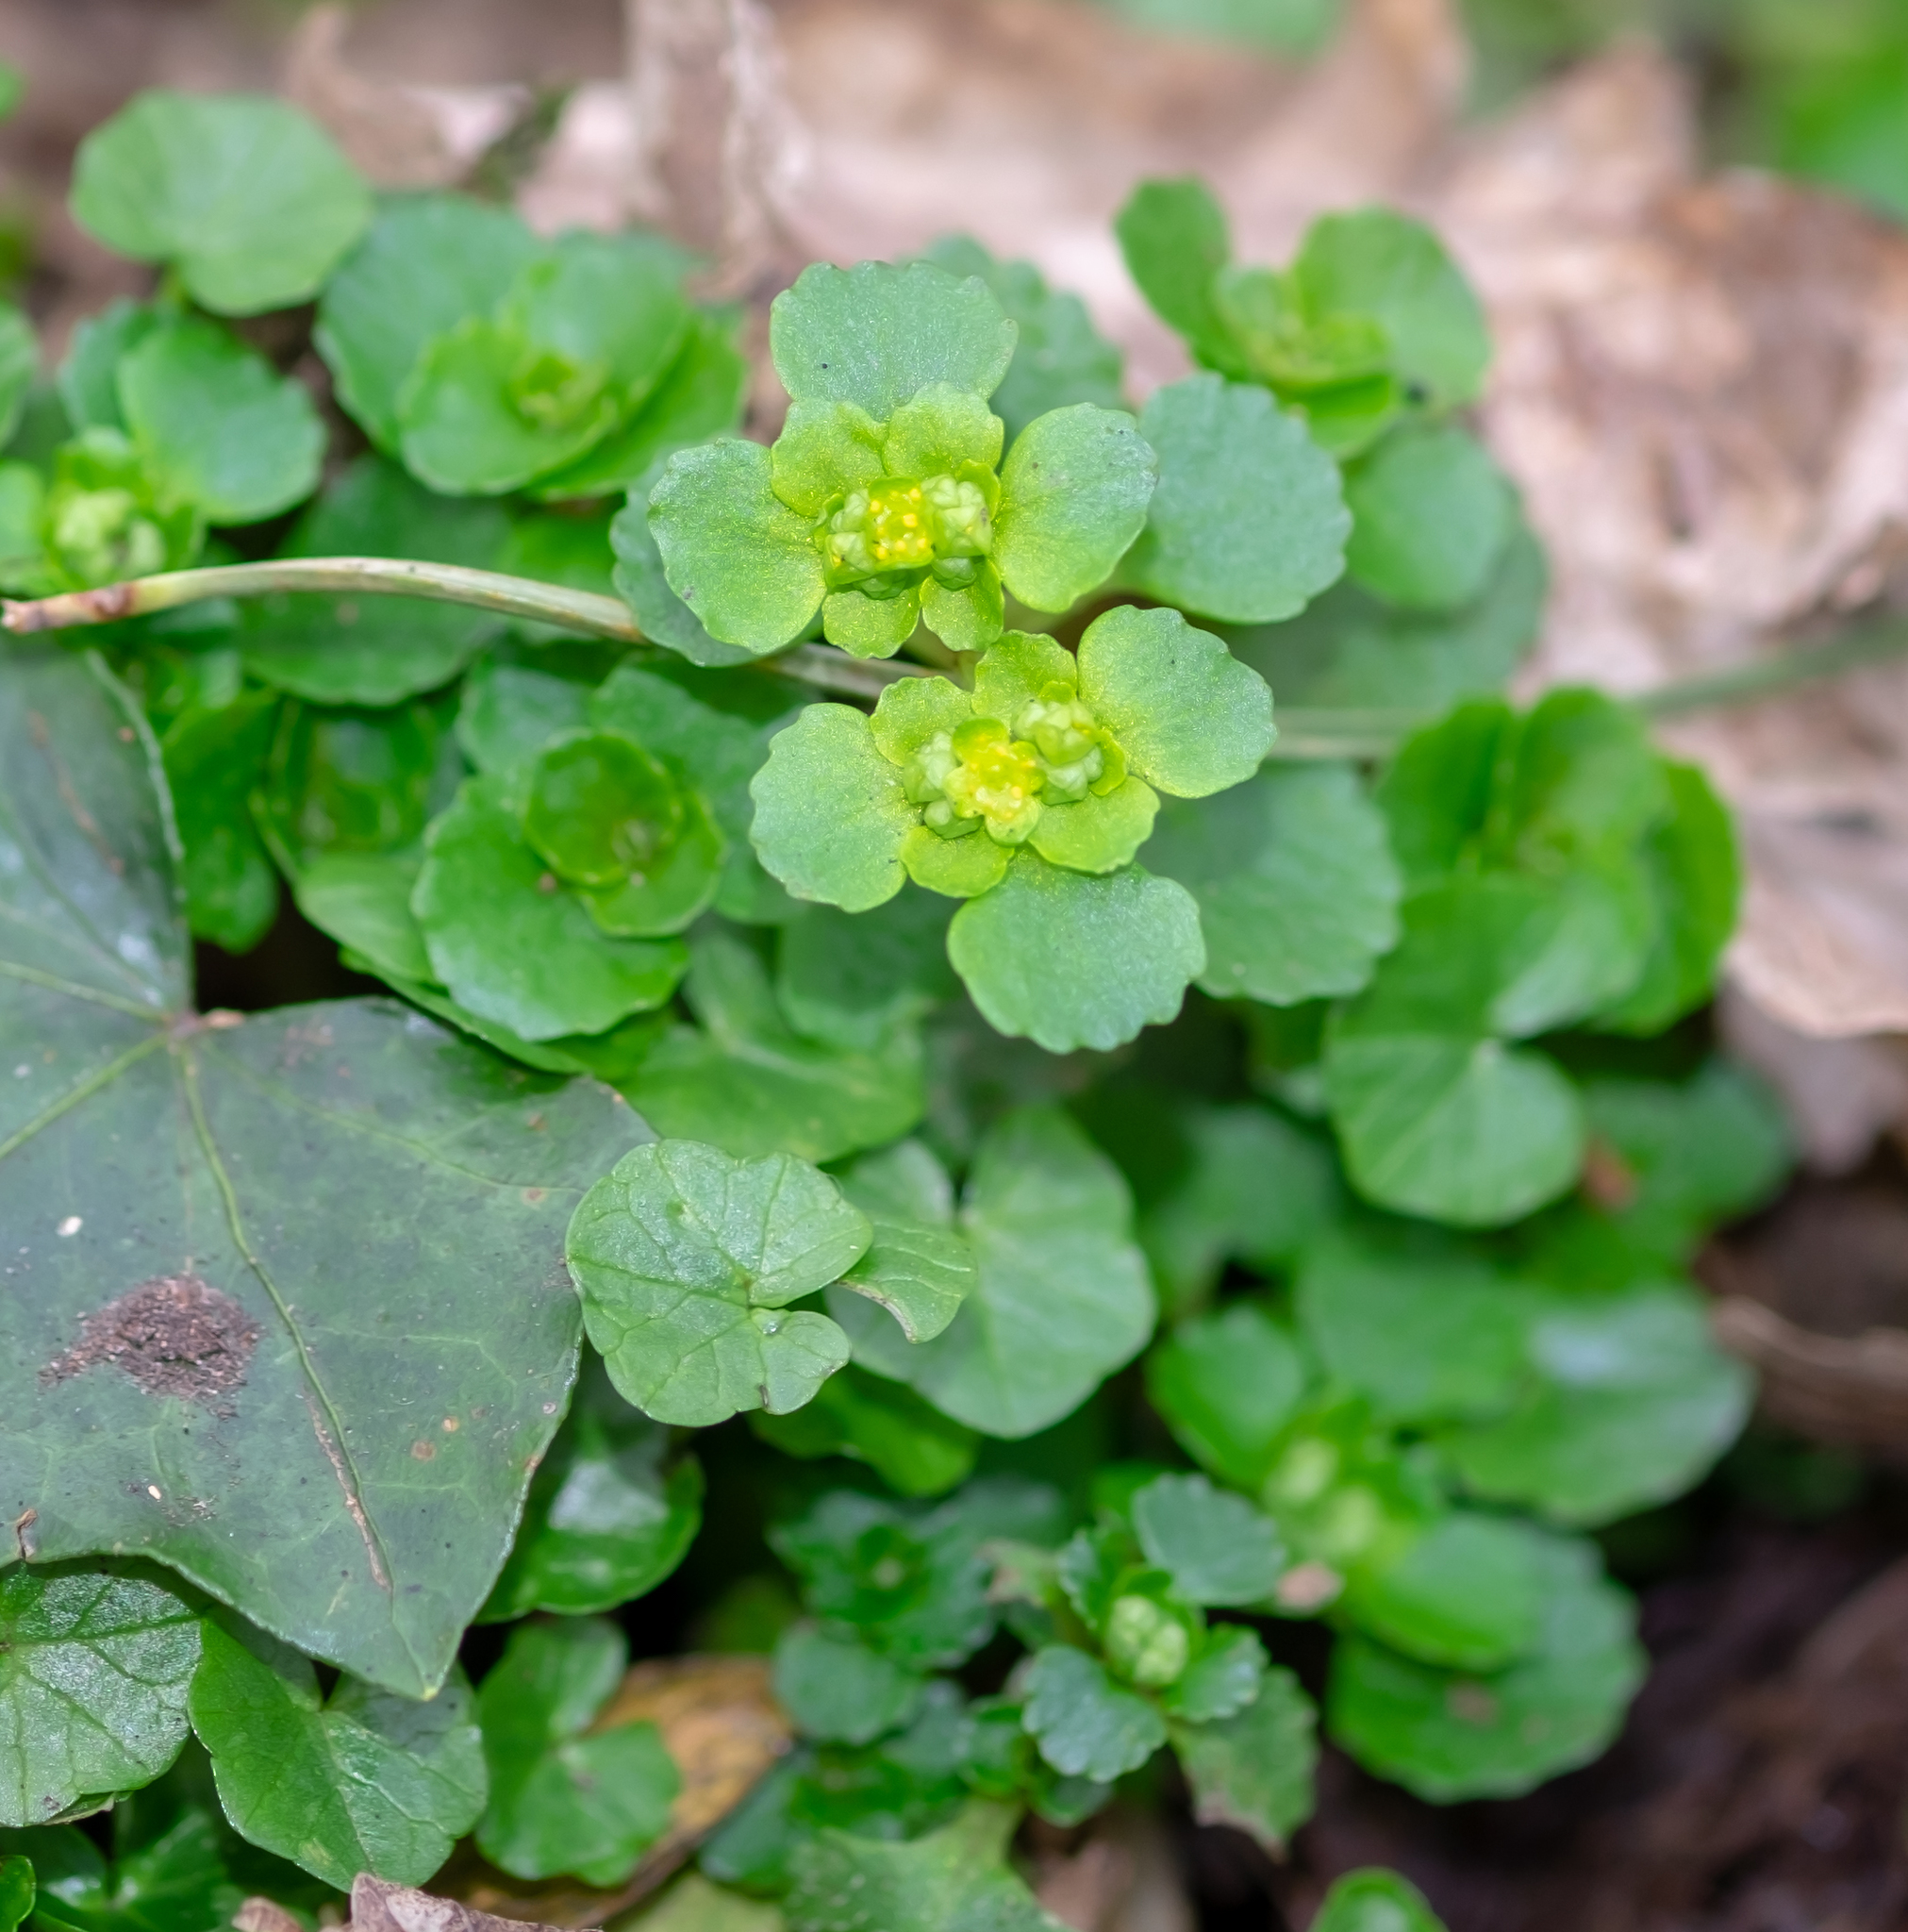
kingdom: Plantae
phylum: Tracheophyta
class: Magnoliopsida
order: Saxifragales
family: Saxifragaceae
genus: Chrysosplenium
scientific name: Chrysosplenium oppositifolium
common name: Opposite-leaved golden-saxifrage
